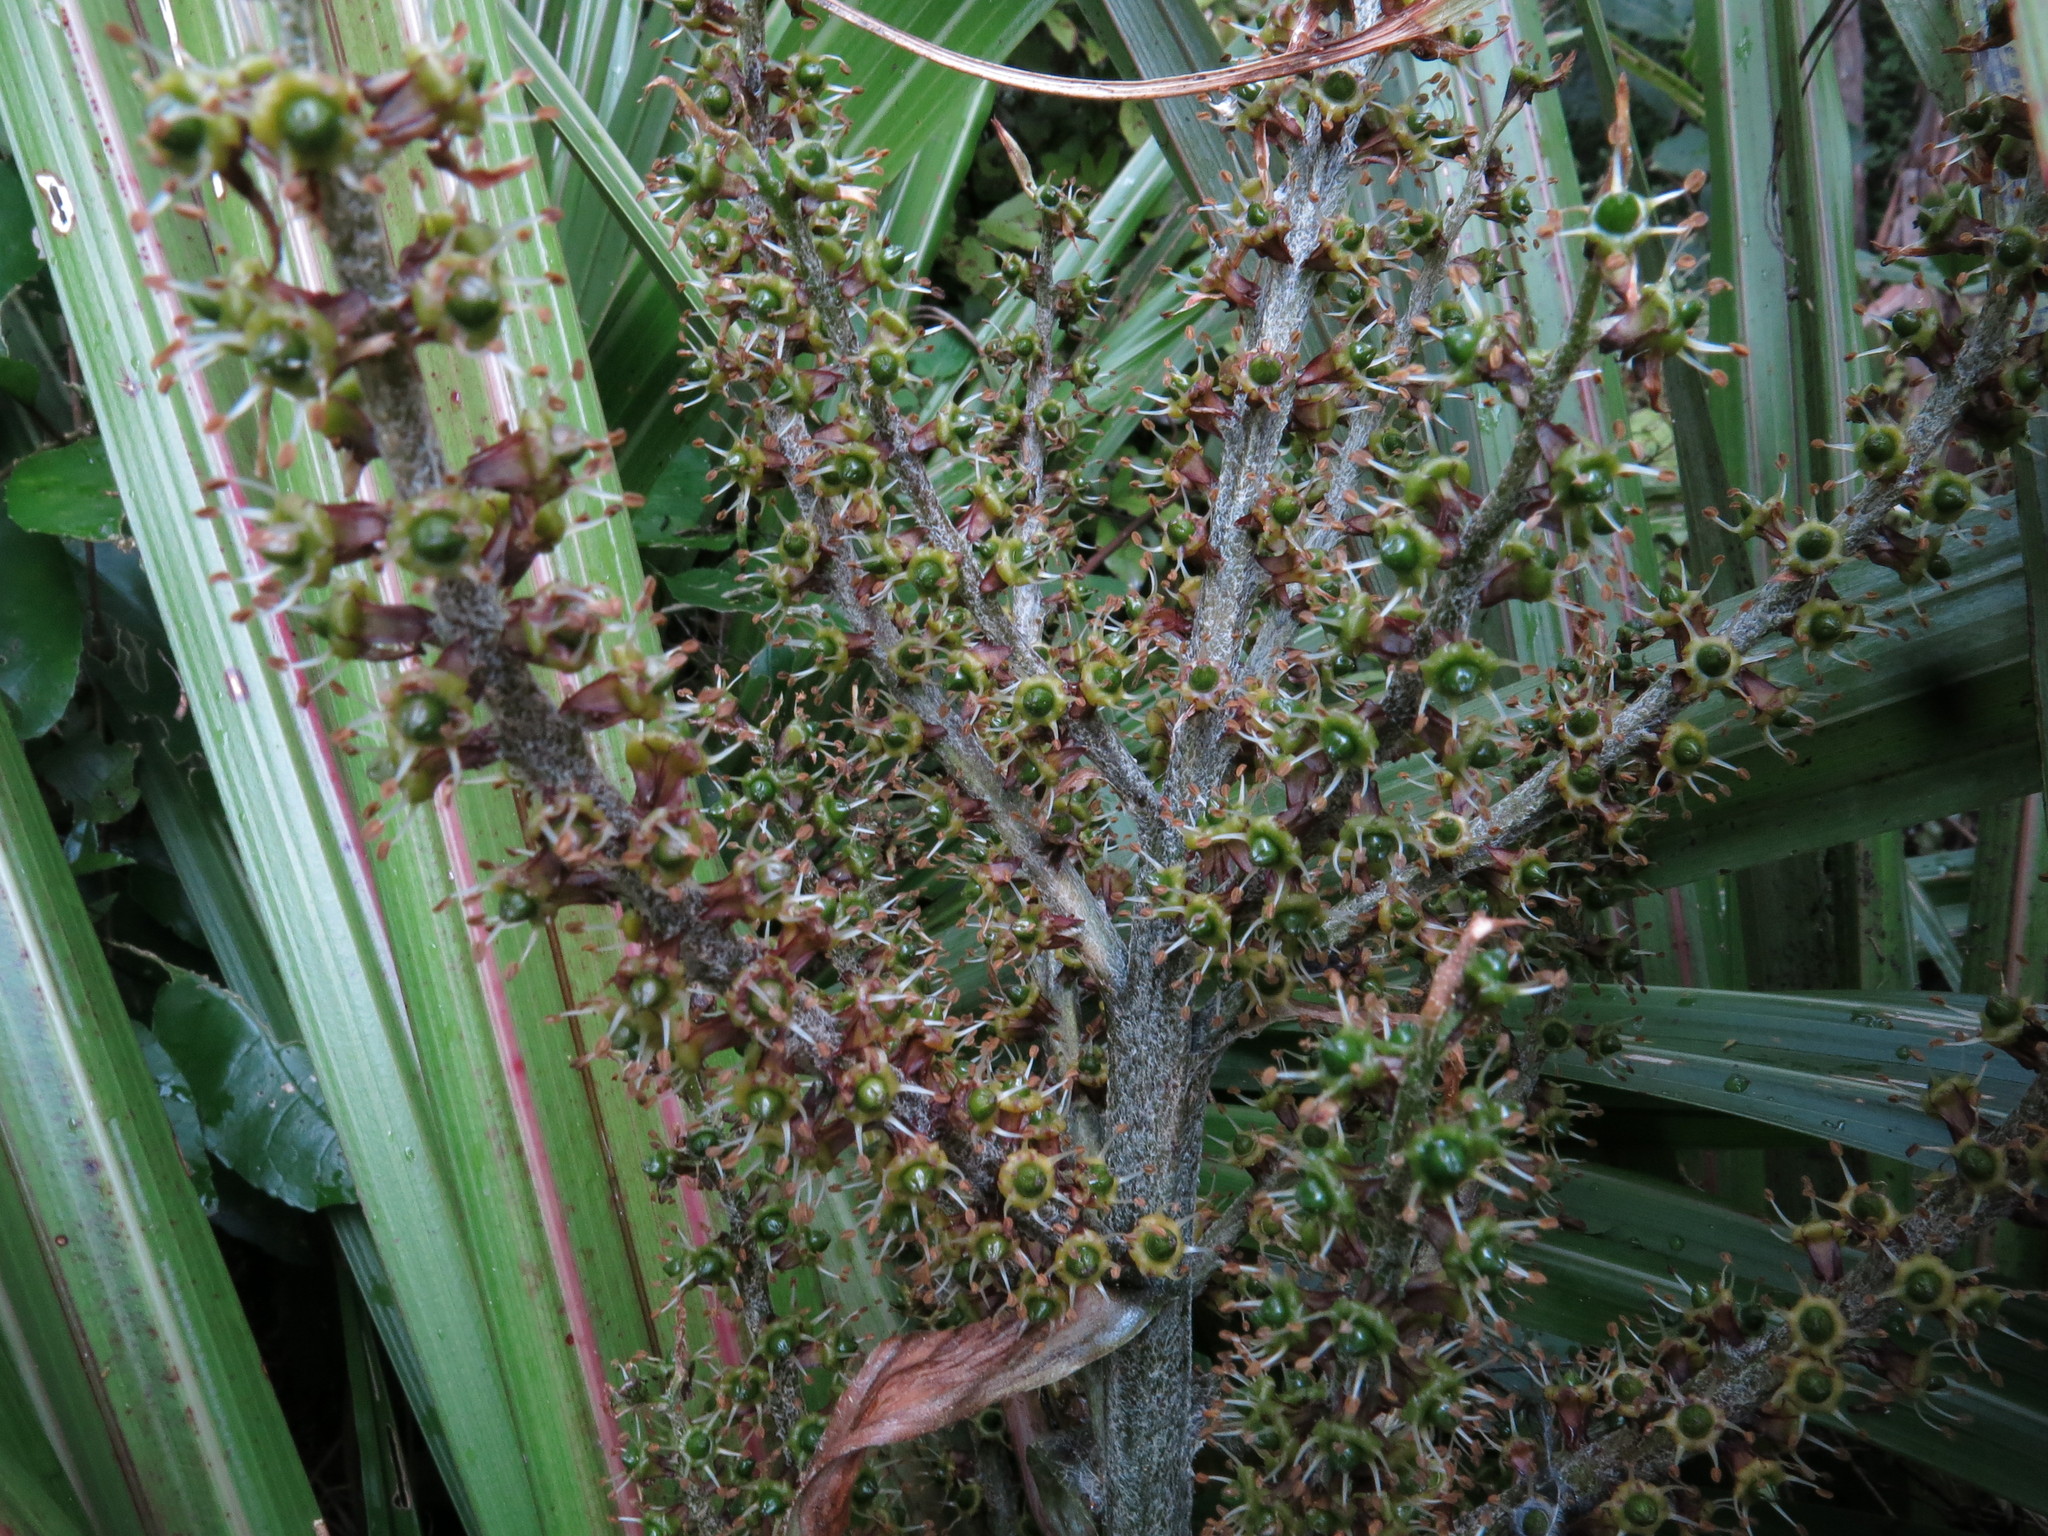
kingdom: Plantae
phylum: Tracheophyta
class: Liliopsida
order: Asparagales
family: Asteliaceae
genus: Astelia
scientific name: Astelia fragrans
